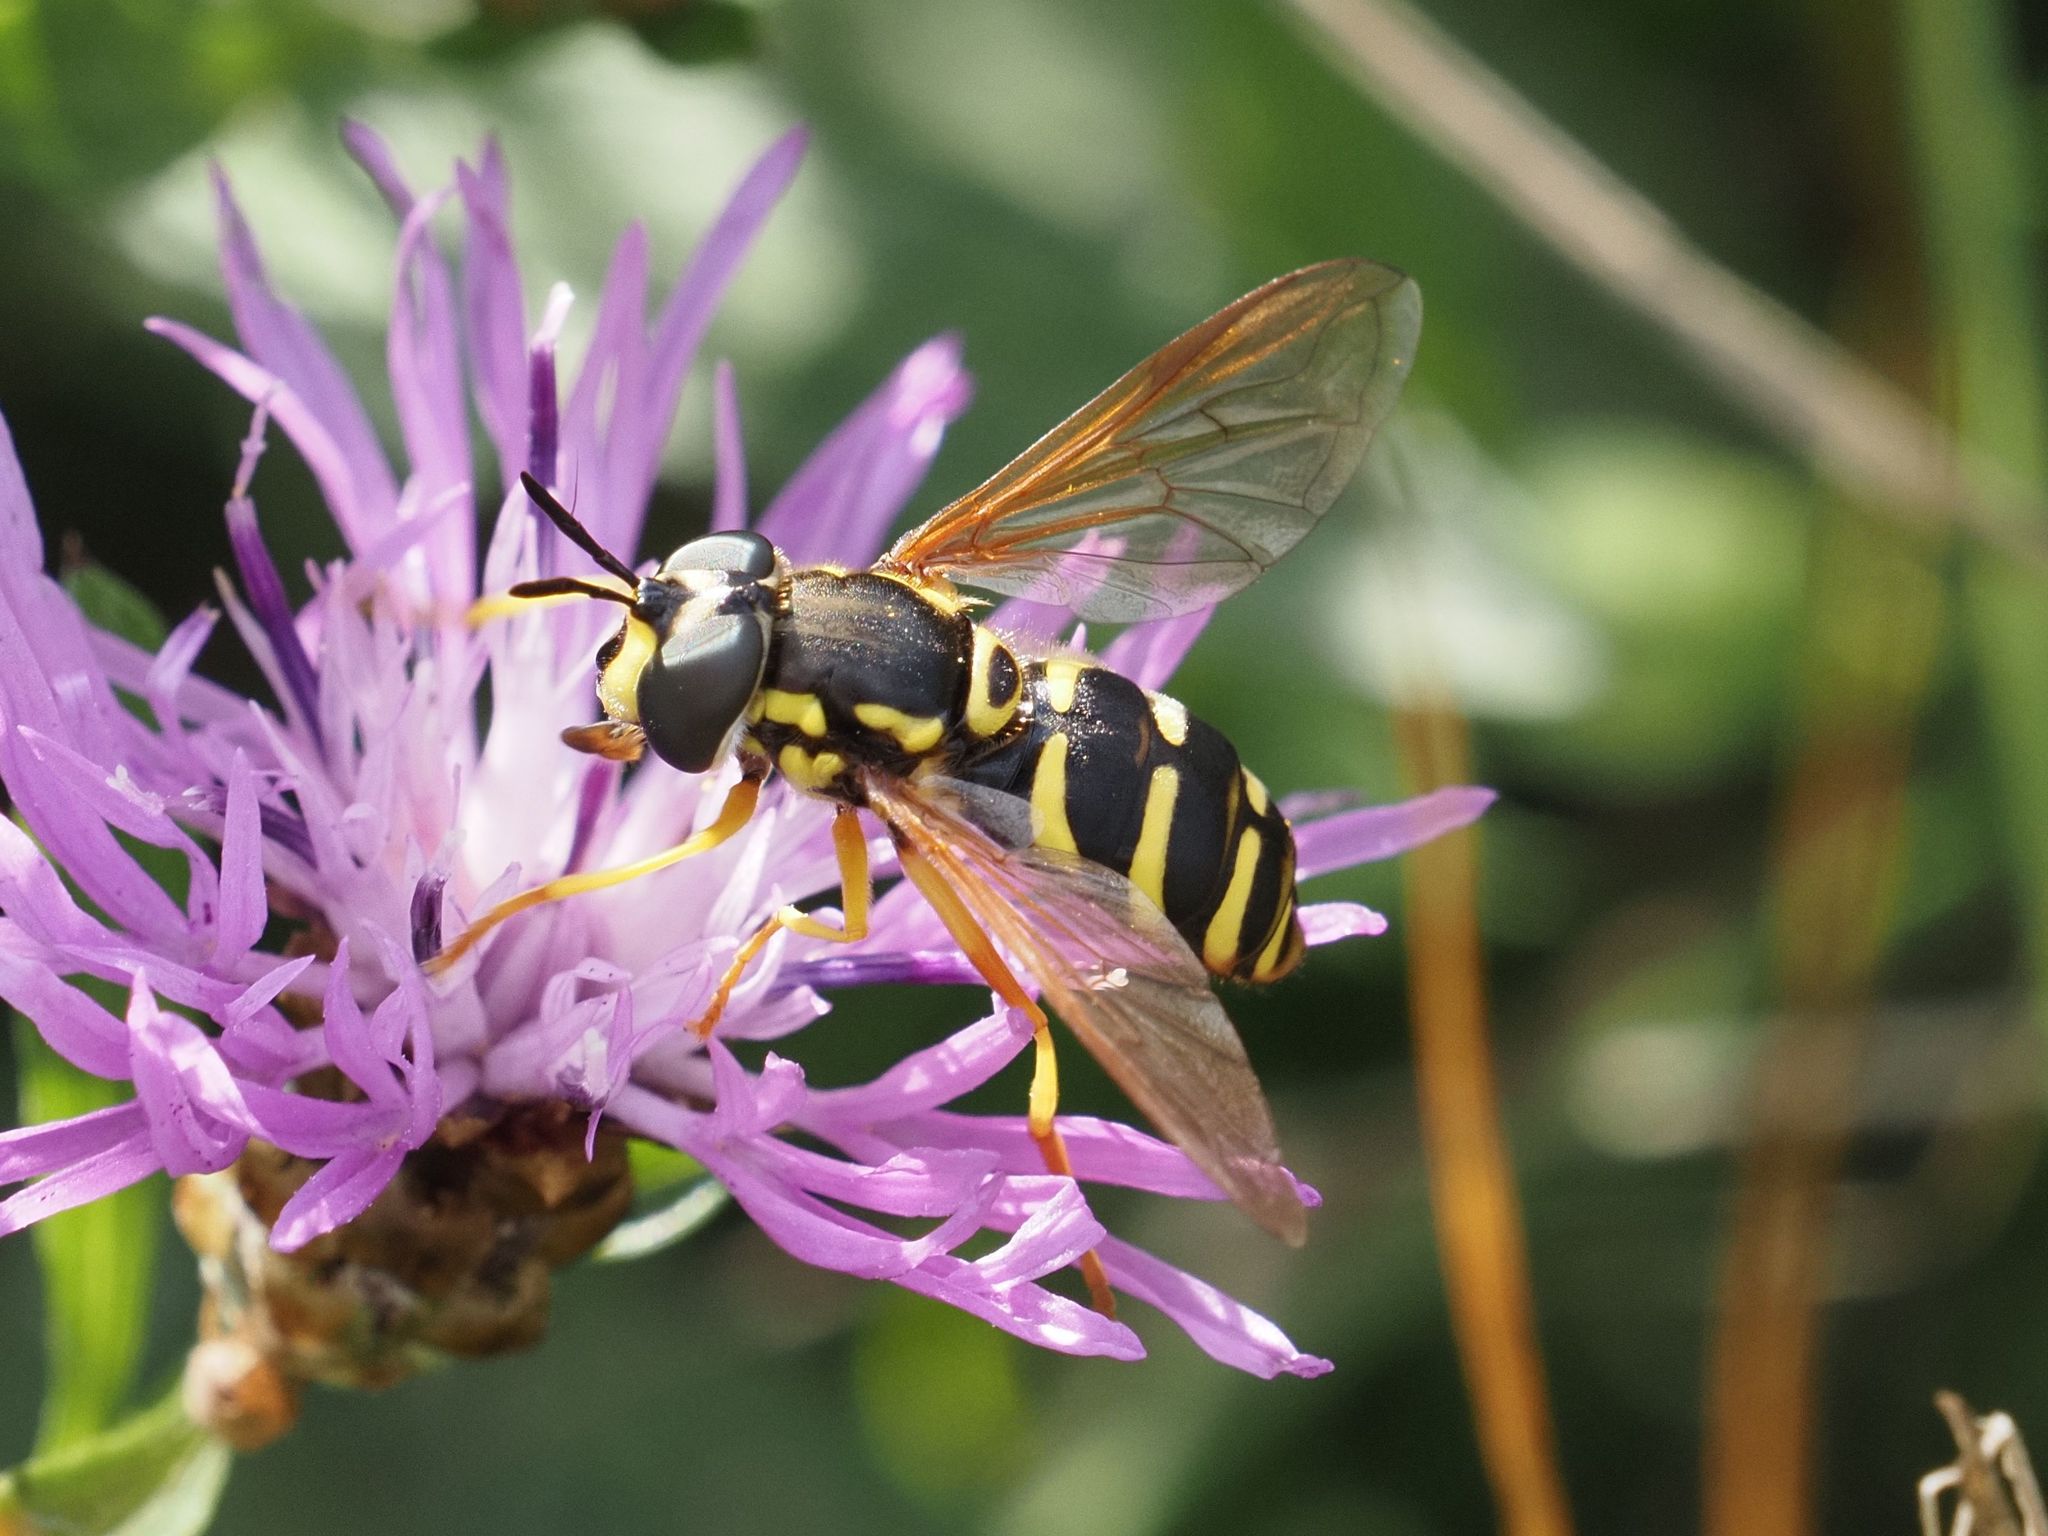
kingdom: Animalia
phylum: Arthropoda
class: Insecta
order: Diptera
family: Syrphidae
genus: Chrysotoxum
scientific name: Chrysotoxum elegans
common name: Zipperback
